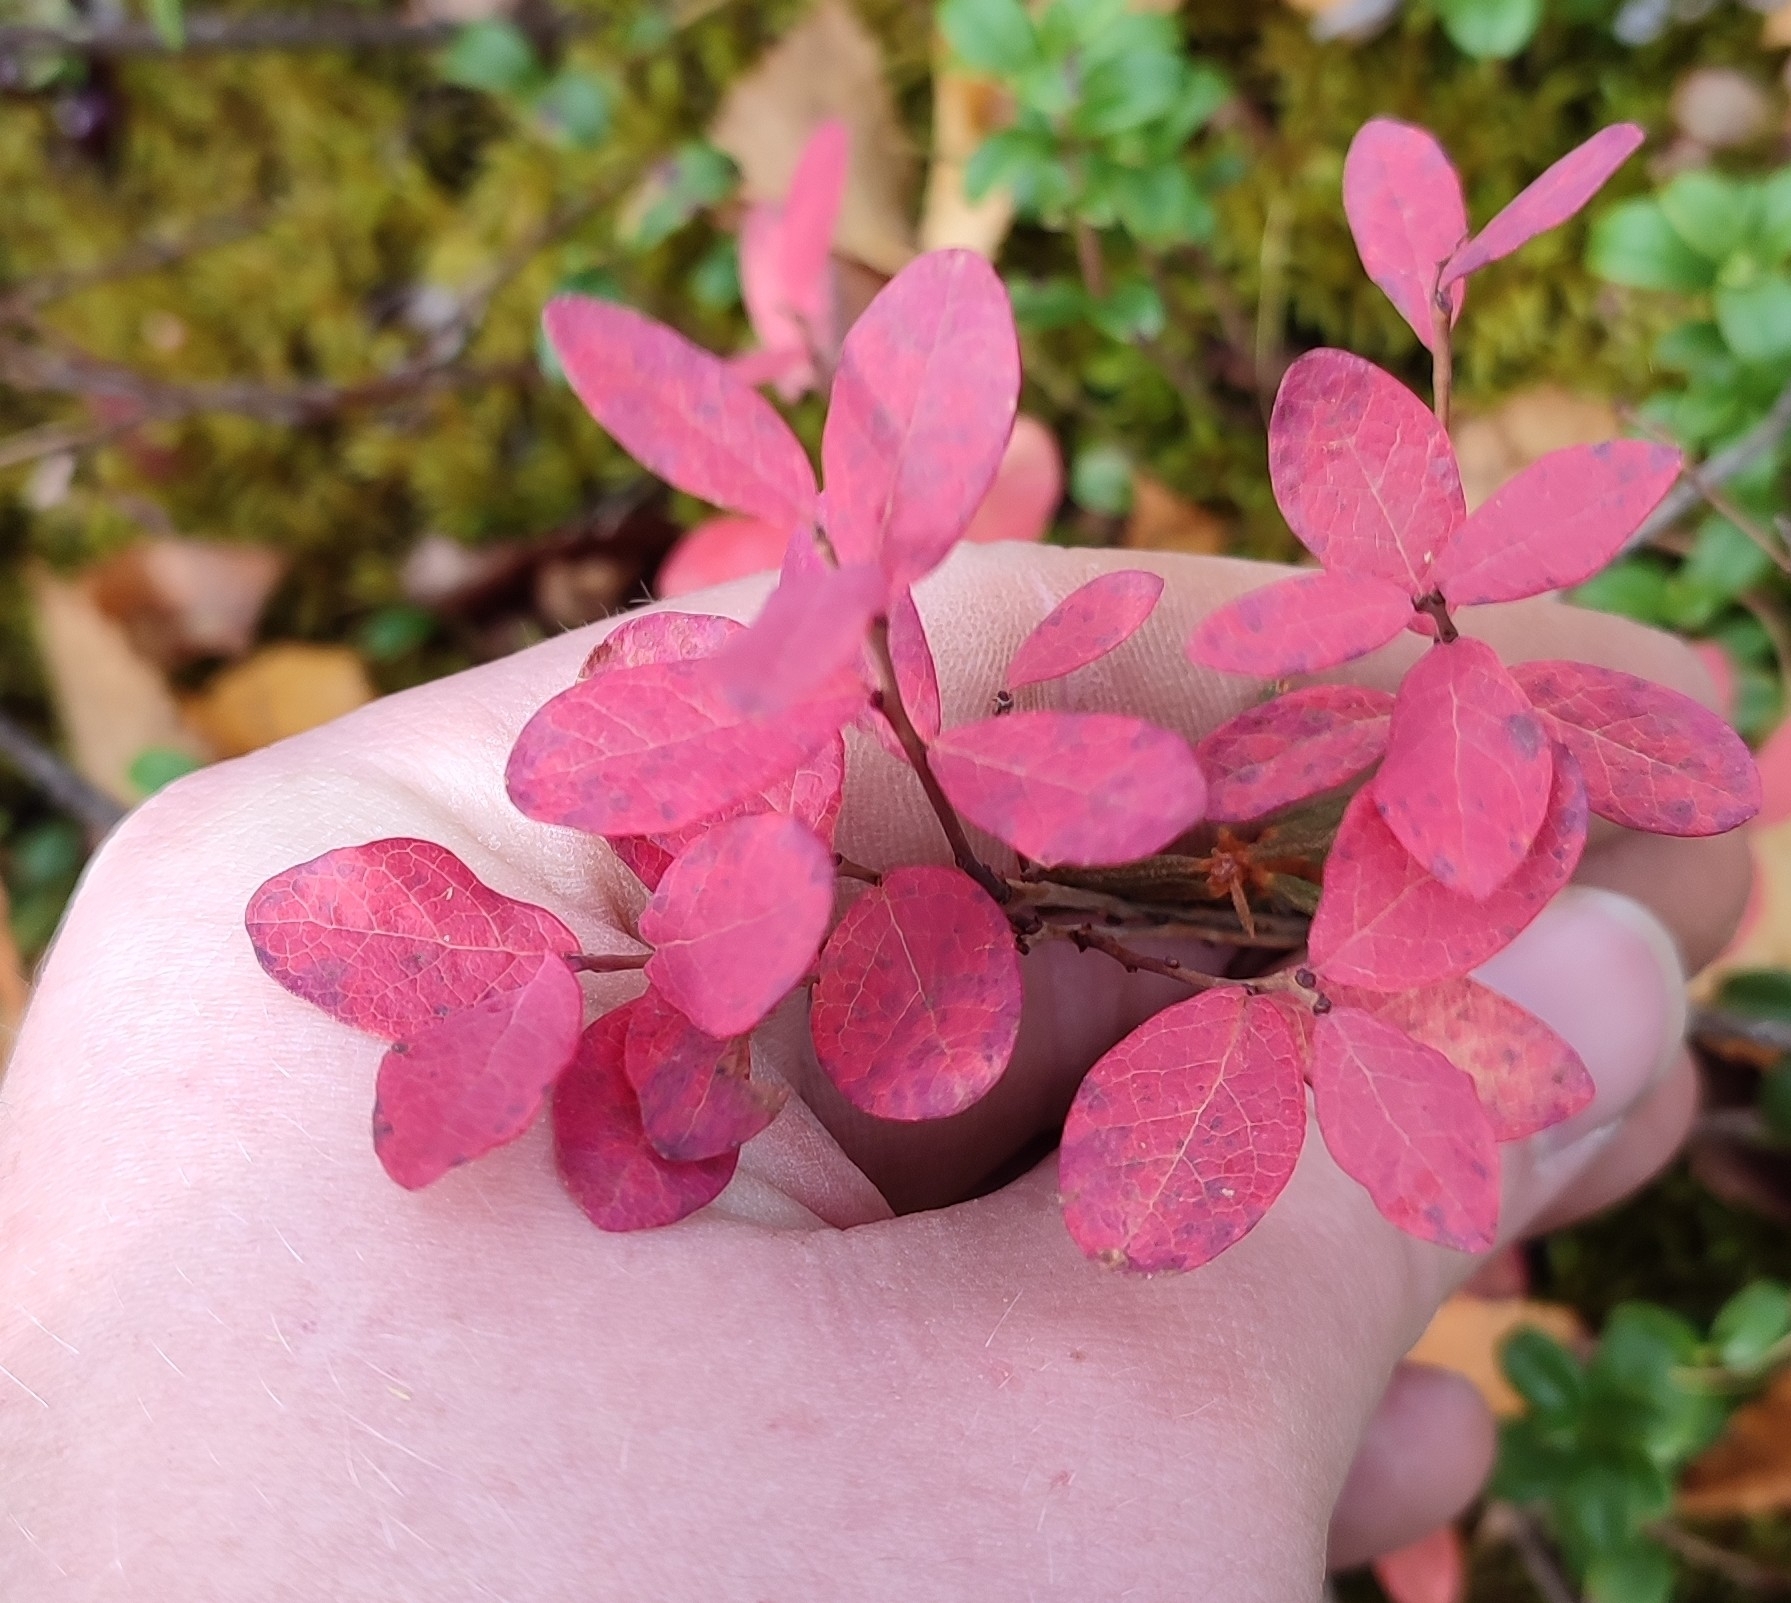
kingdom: Plantae
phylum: Tracheophyta
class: Magnoliopsida
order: Ericales
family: Ericaceae
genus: Vaccinium
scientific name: Vaccinium uliginosum
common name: Bog bilberry
